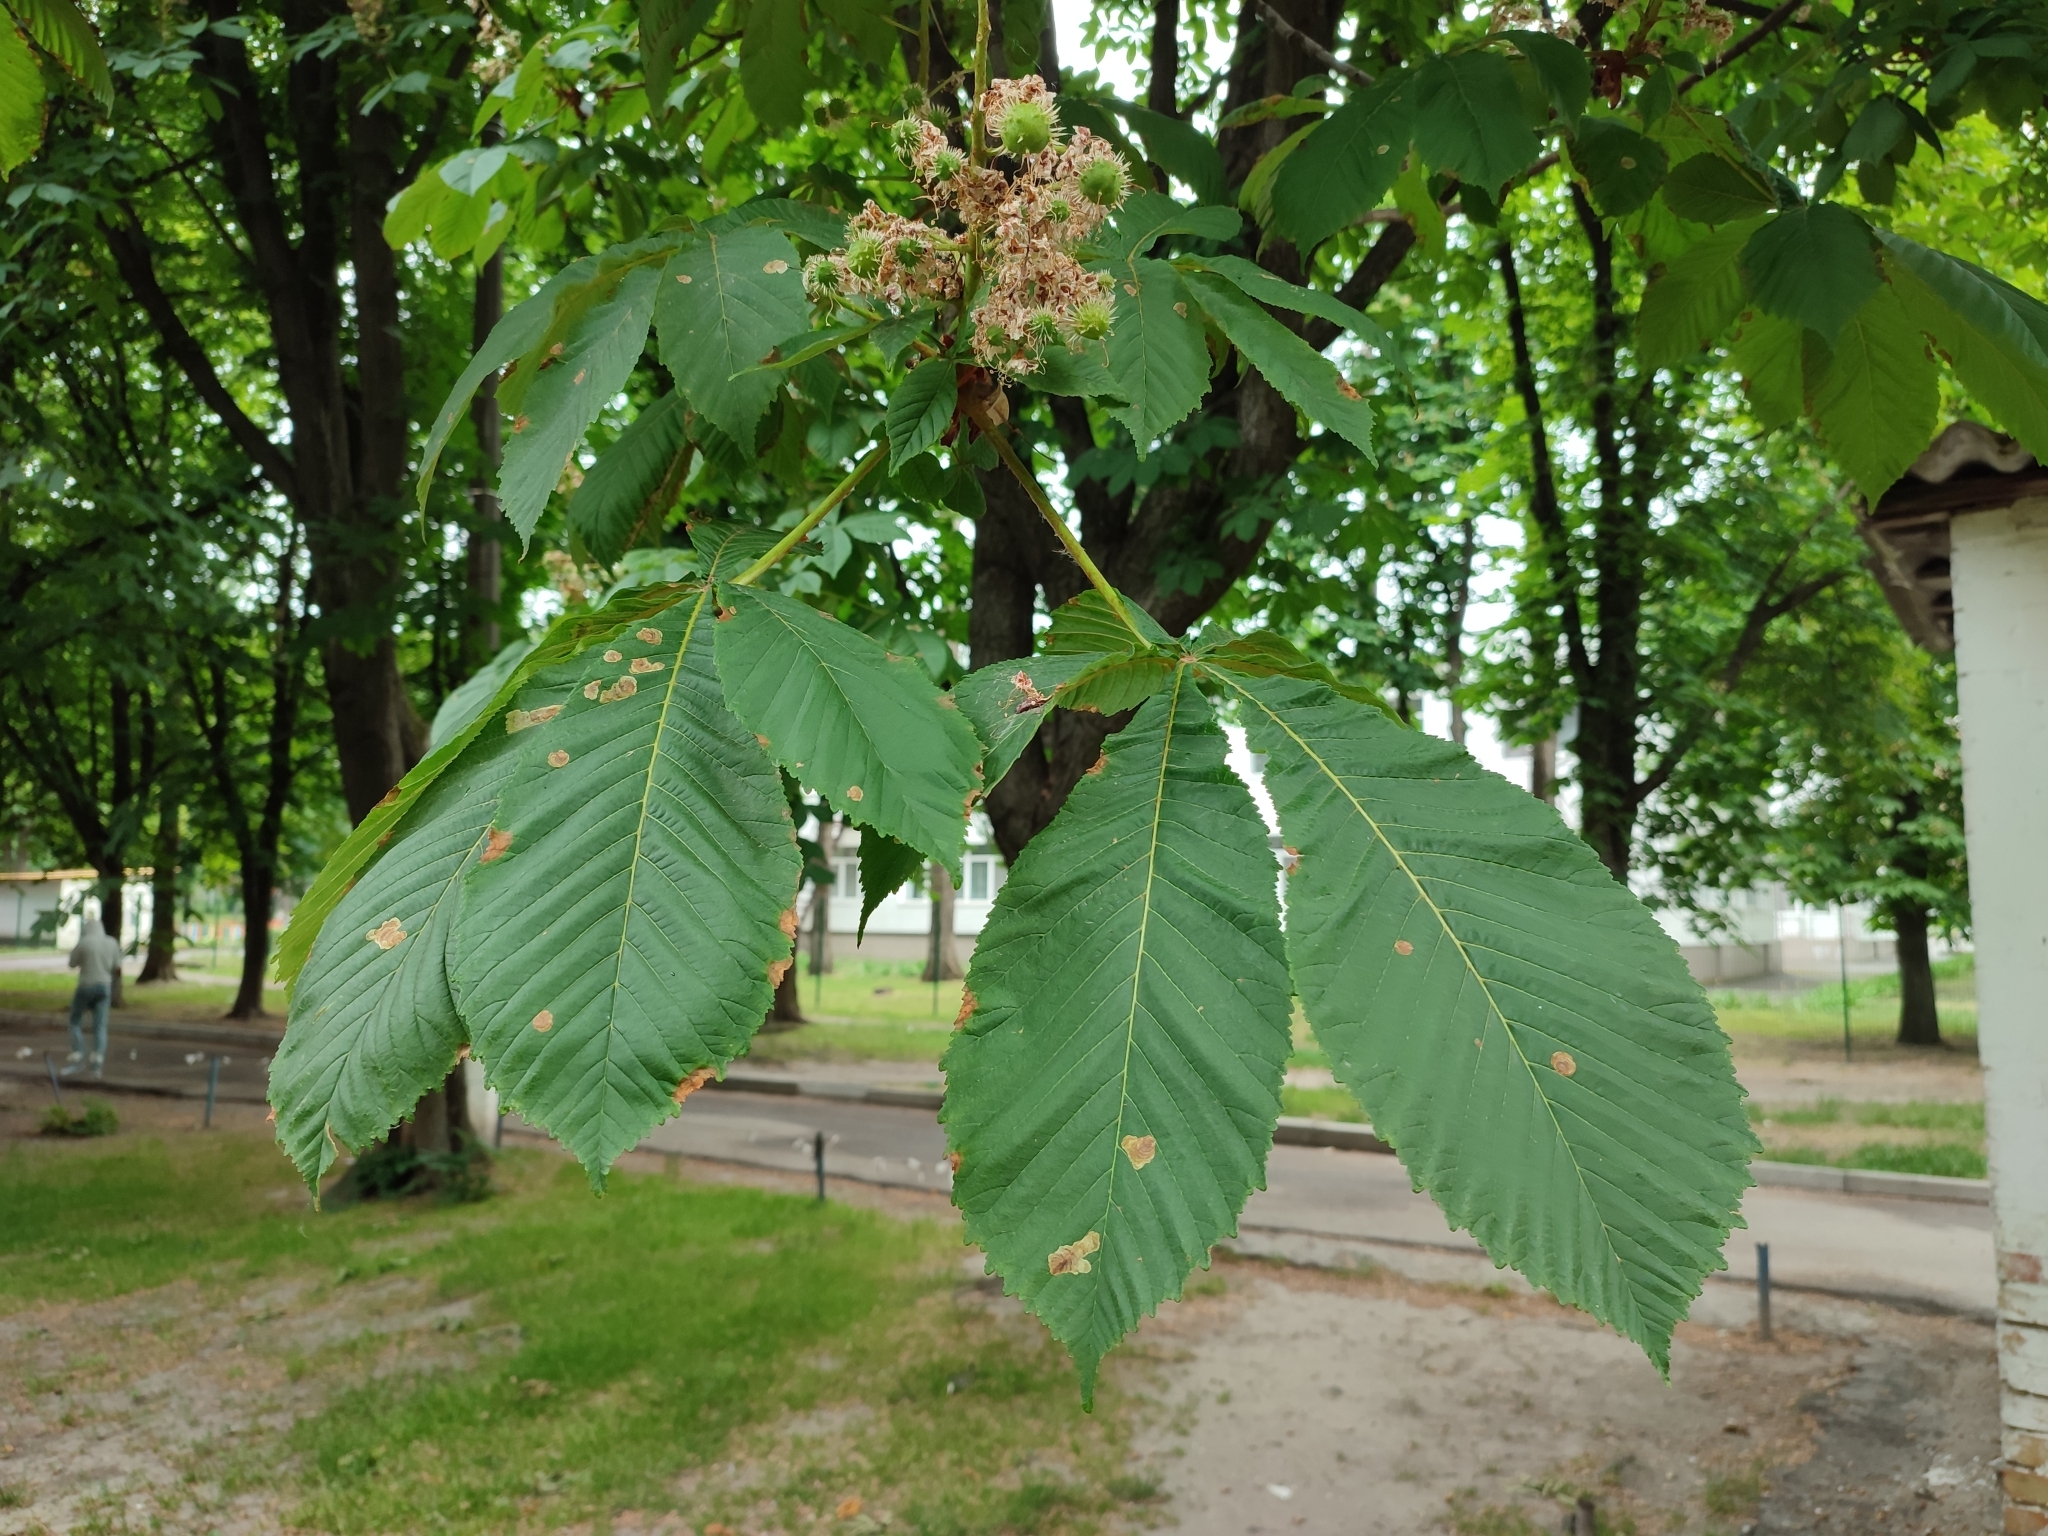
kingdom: Animalia
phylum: Arthropoda
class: Insecta
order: Lepidoptera
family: Gracillariidae
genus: Cameraria
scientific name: Cameraria ohridella
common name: Horse-chestnut leaf-miner
